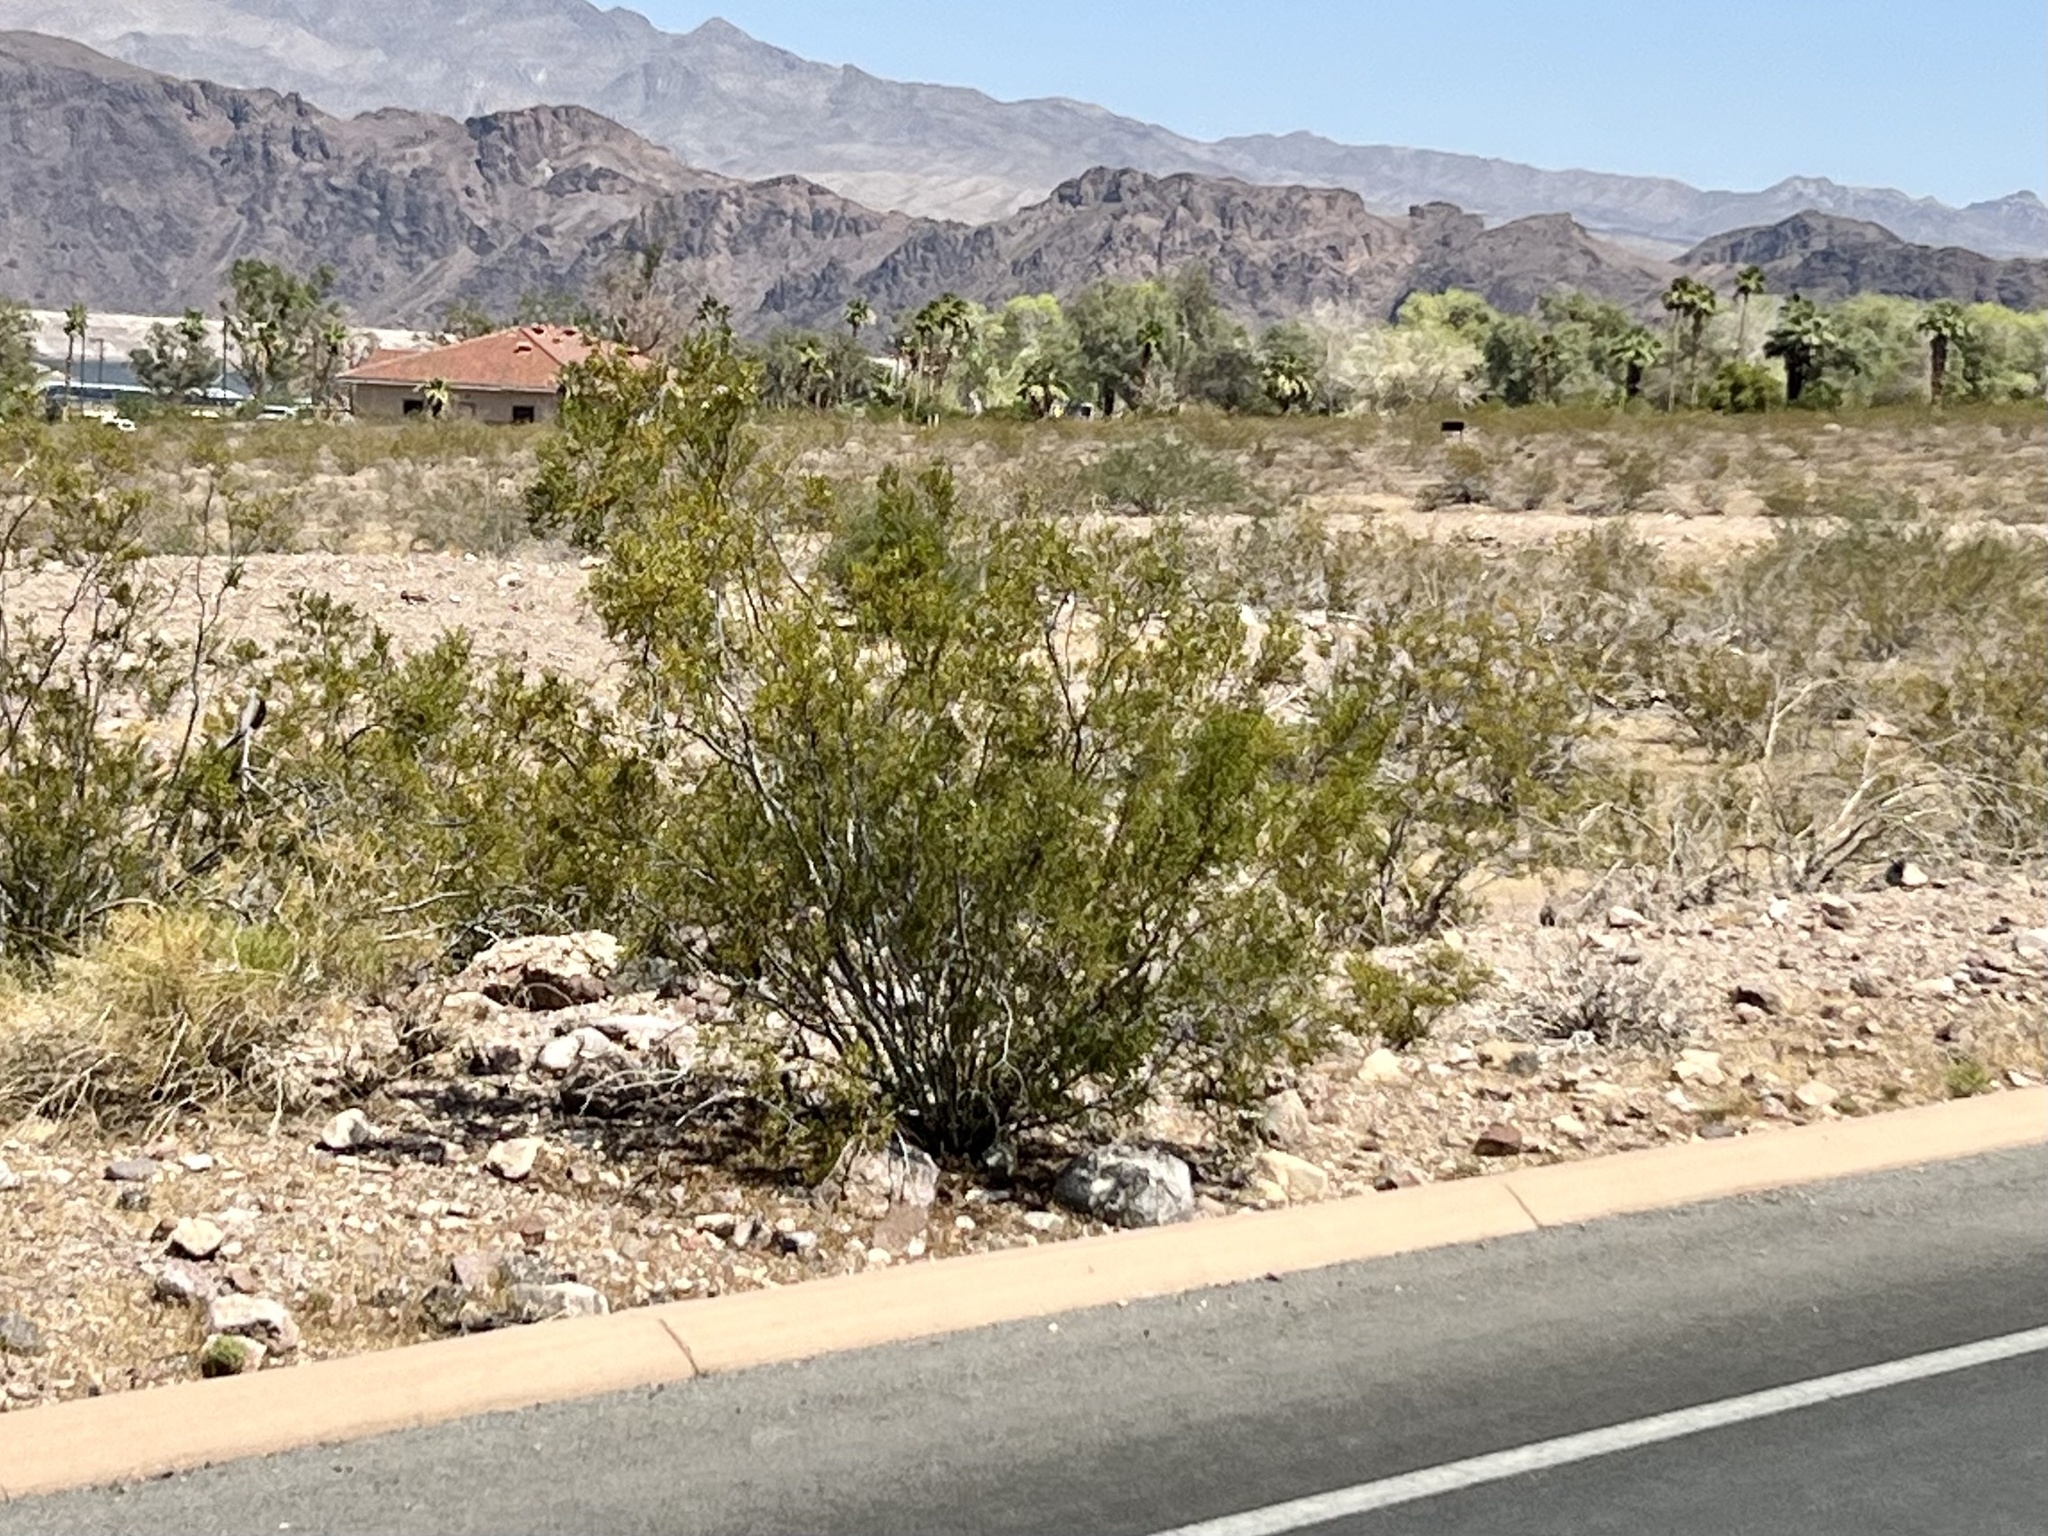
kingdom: Plantae
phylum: Tracheophyta
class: Magnoliopsida
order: Zygophyllales
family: Zygophyllaceae
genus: Larrea
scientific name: Larrea tridentata
